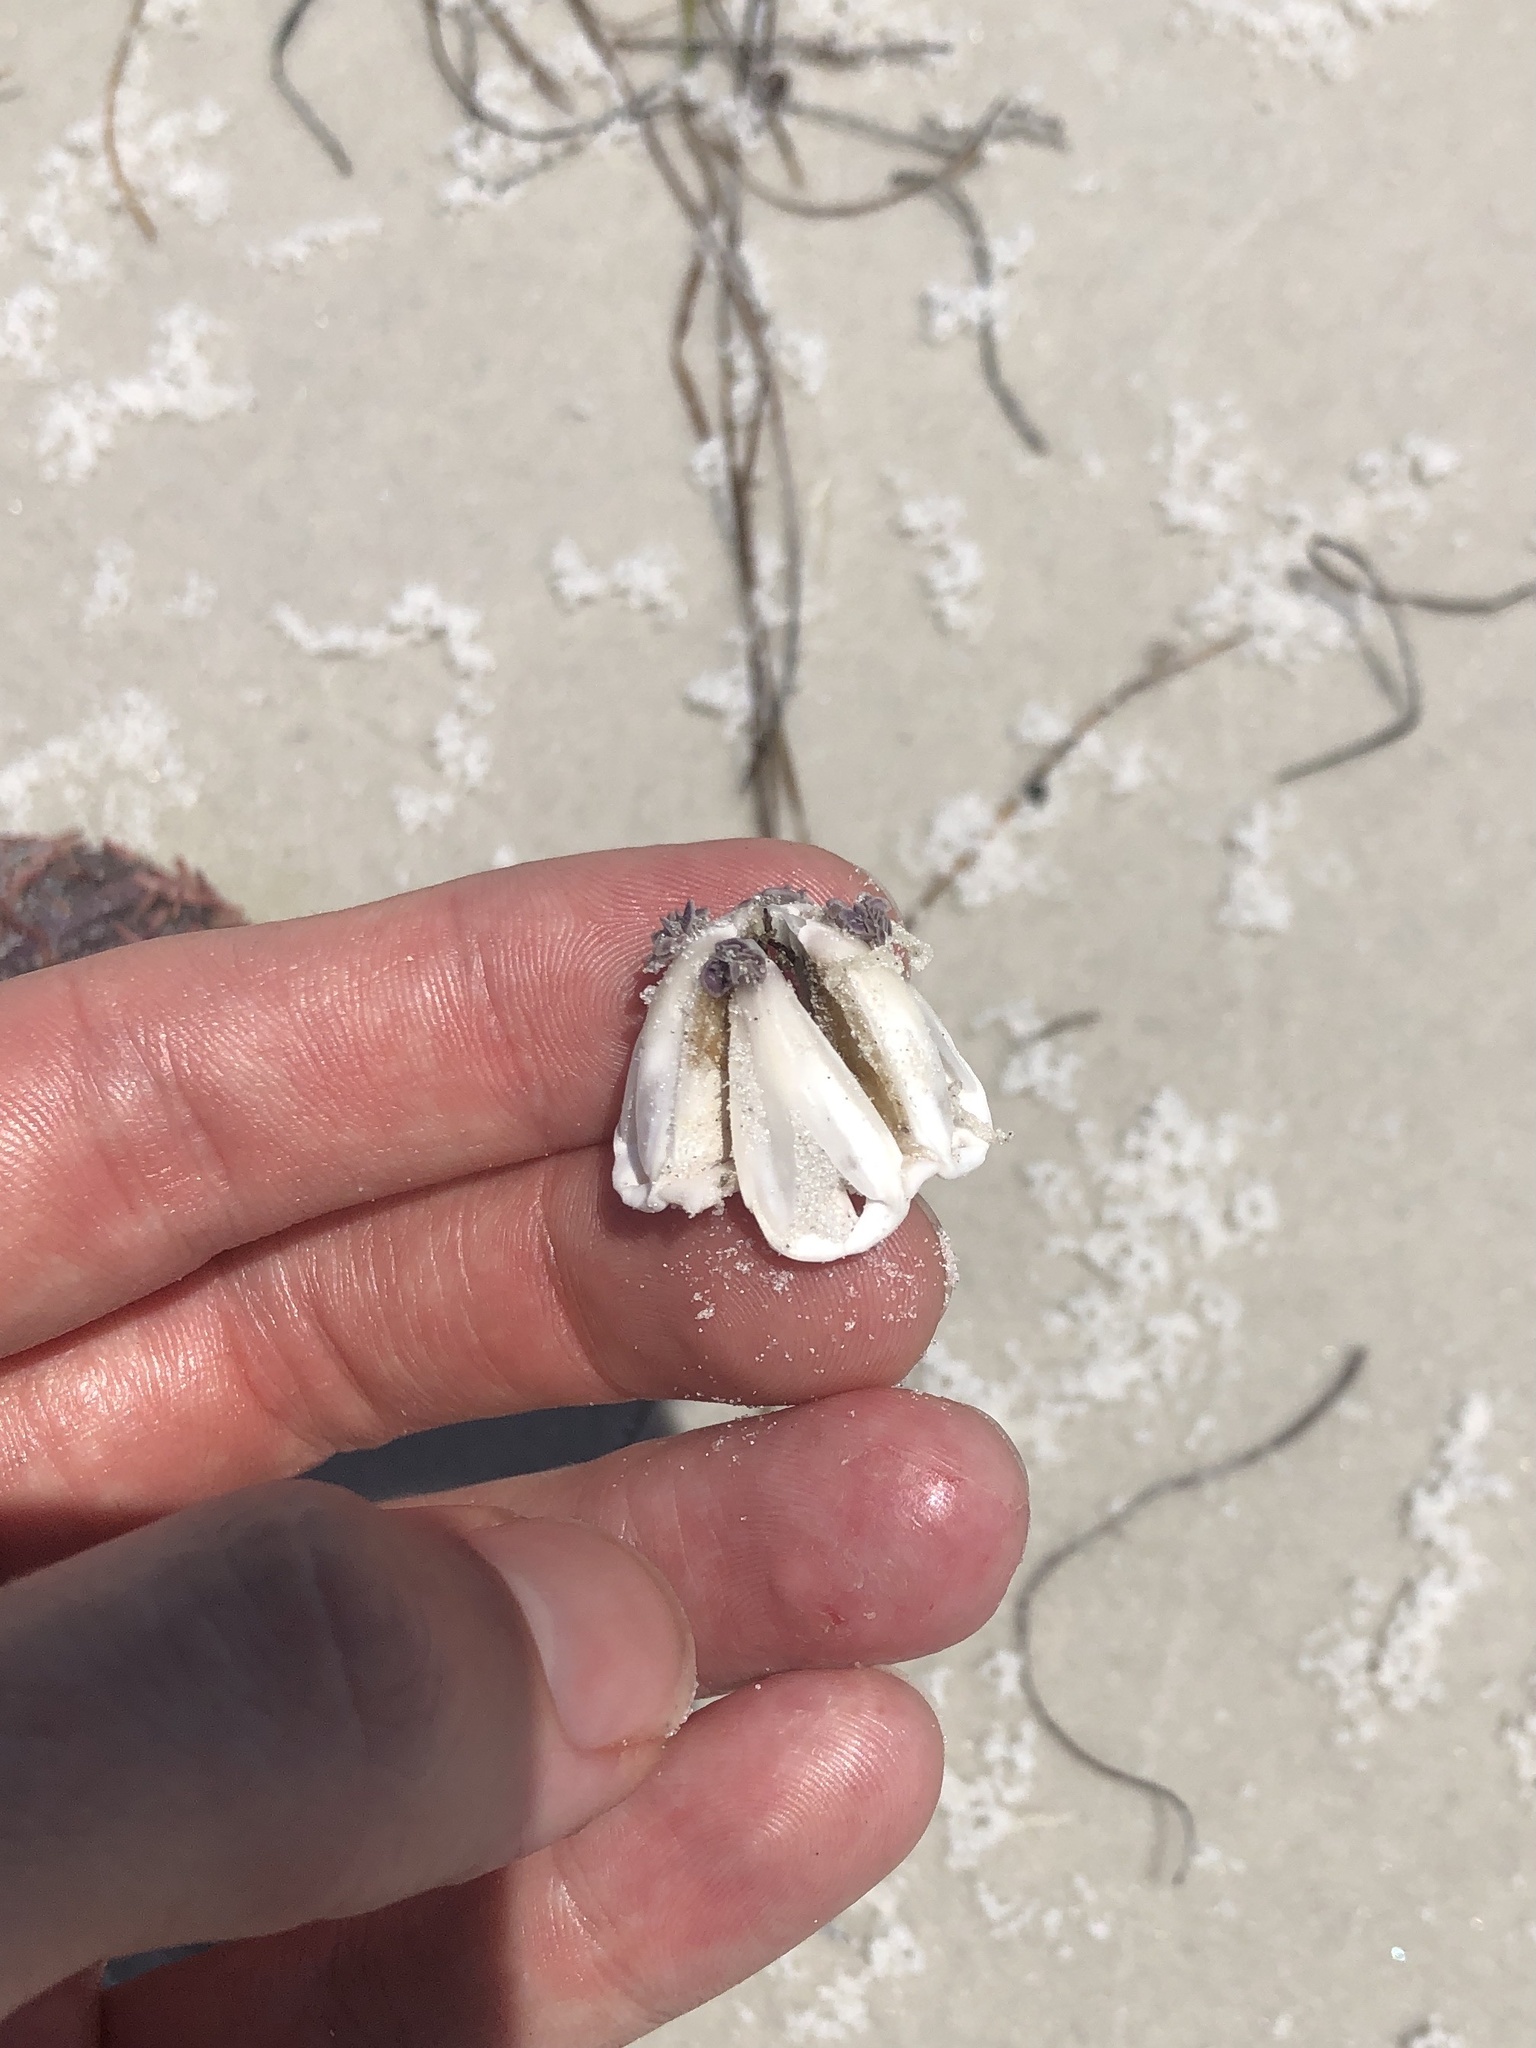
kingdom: Animalia
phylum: Echinodermata
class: Echinoidea
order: Camarodonta
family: Toxopneustidae
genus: Lytechinus
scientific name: Lytechinus variegatus
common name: Variegated urchin
